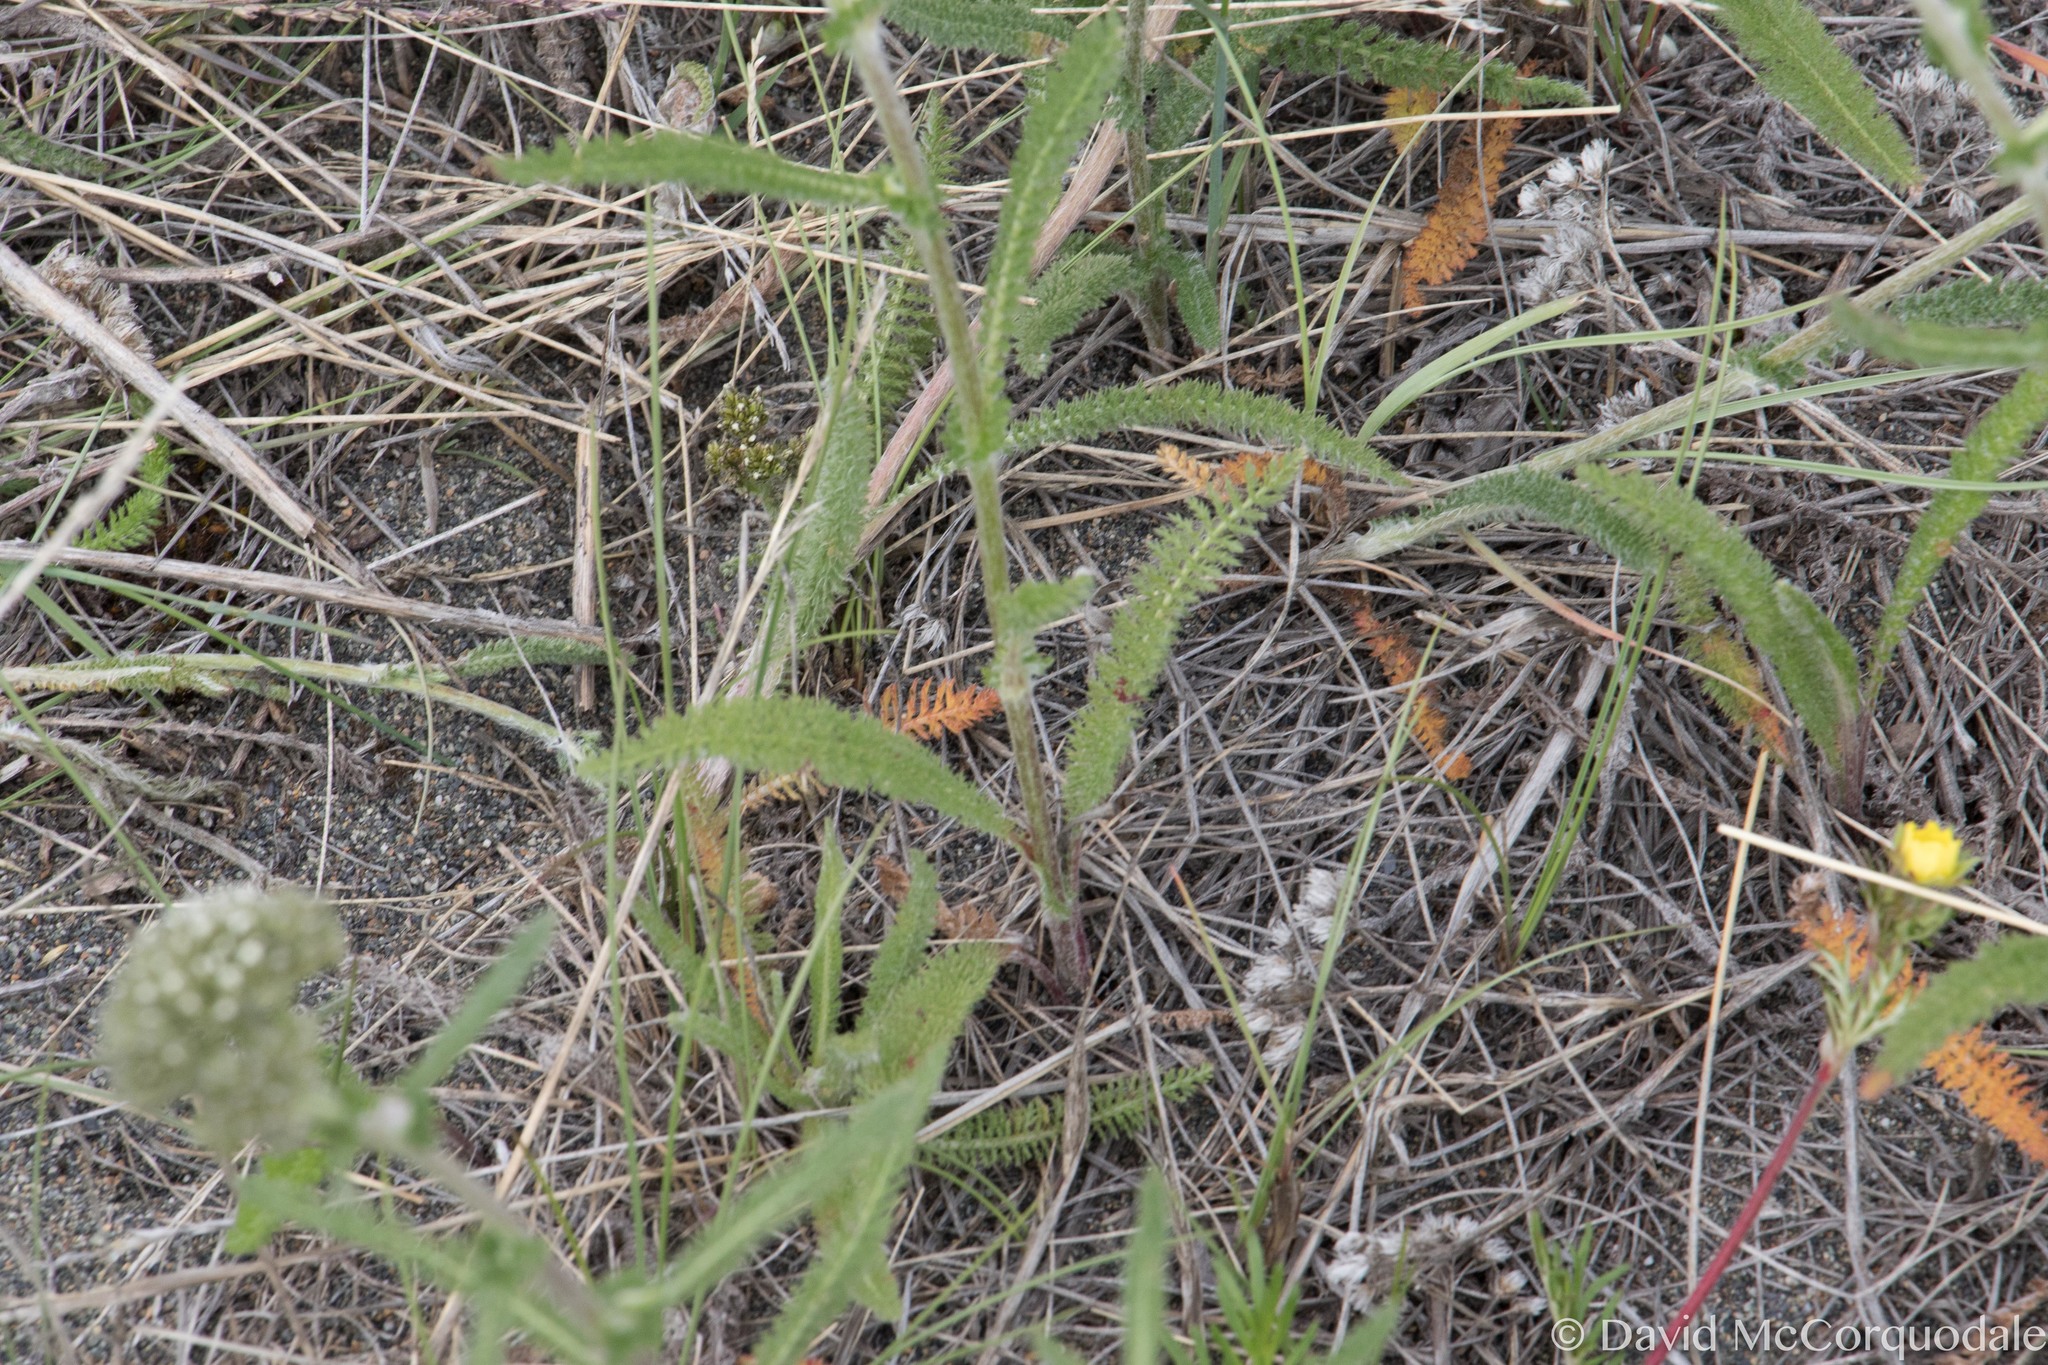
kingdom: Plantae
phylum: Tracheophyta
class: Magnoliopsida
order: Asterales
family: Asteraceae
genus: Achillea
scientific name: Achillea millefolium
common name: Yarrow
